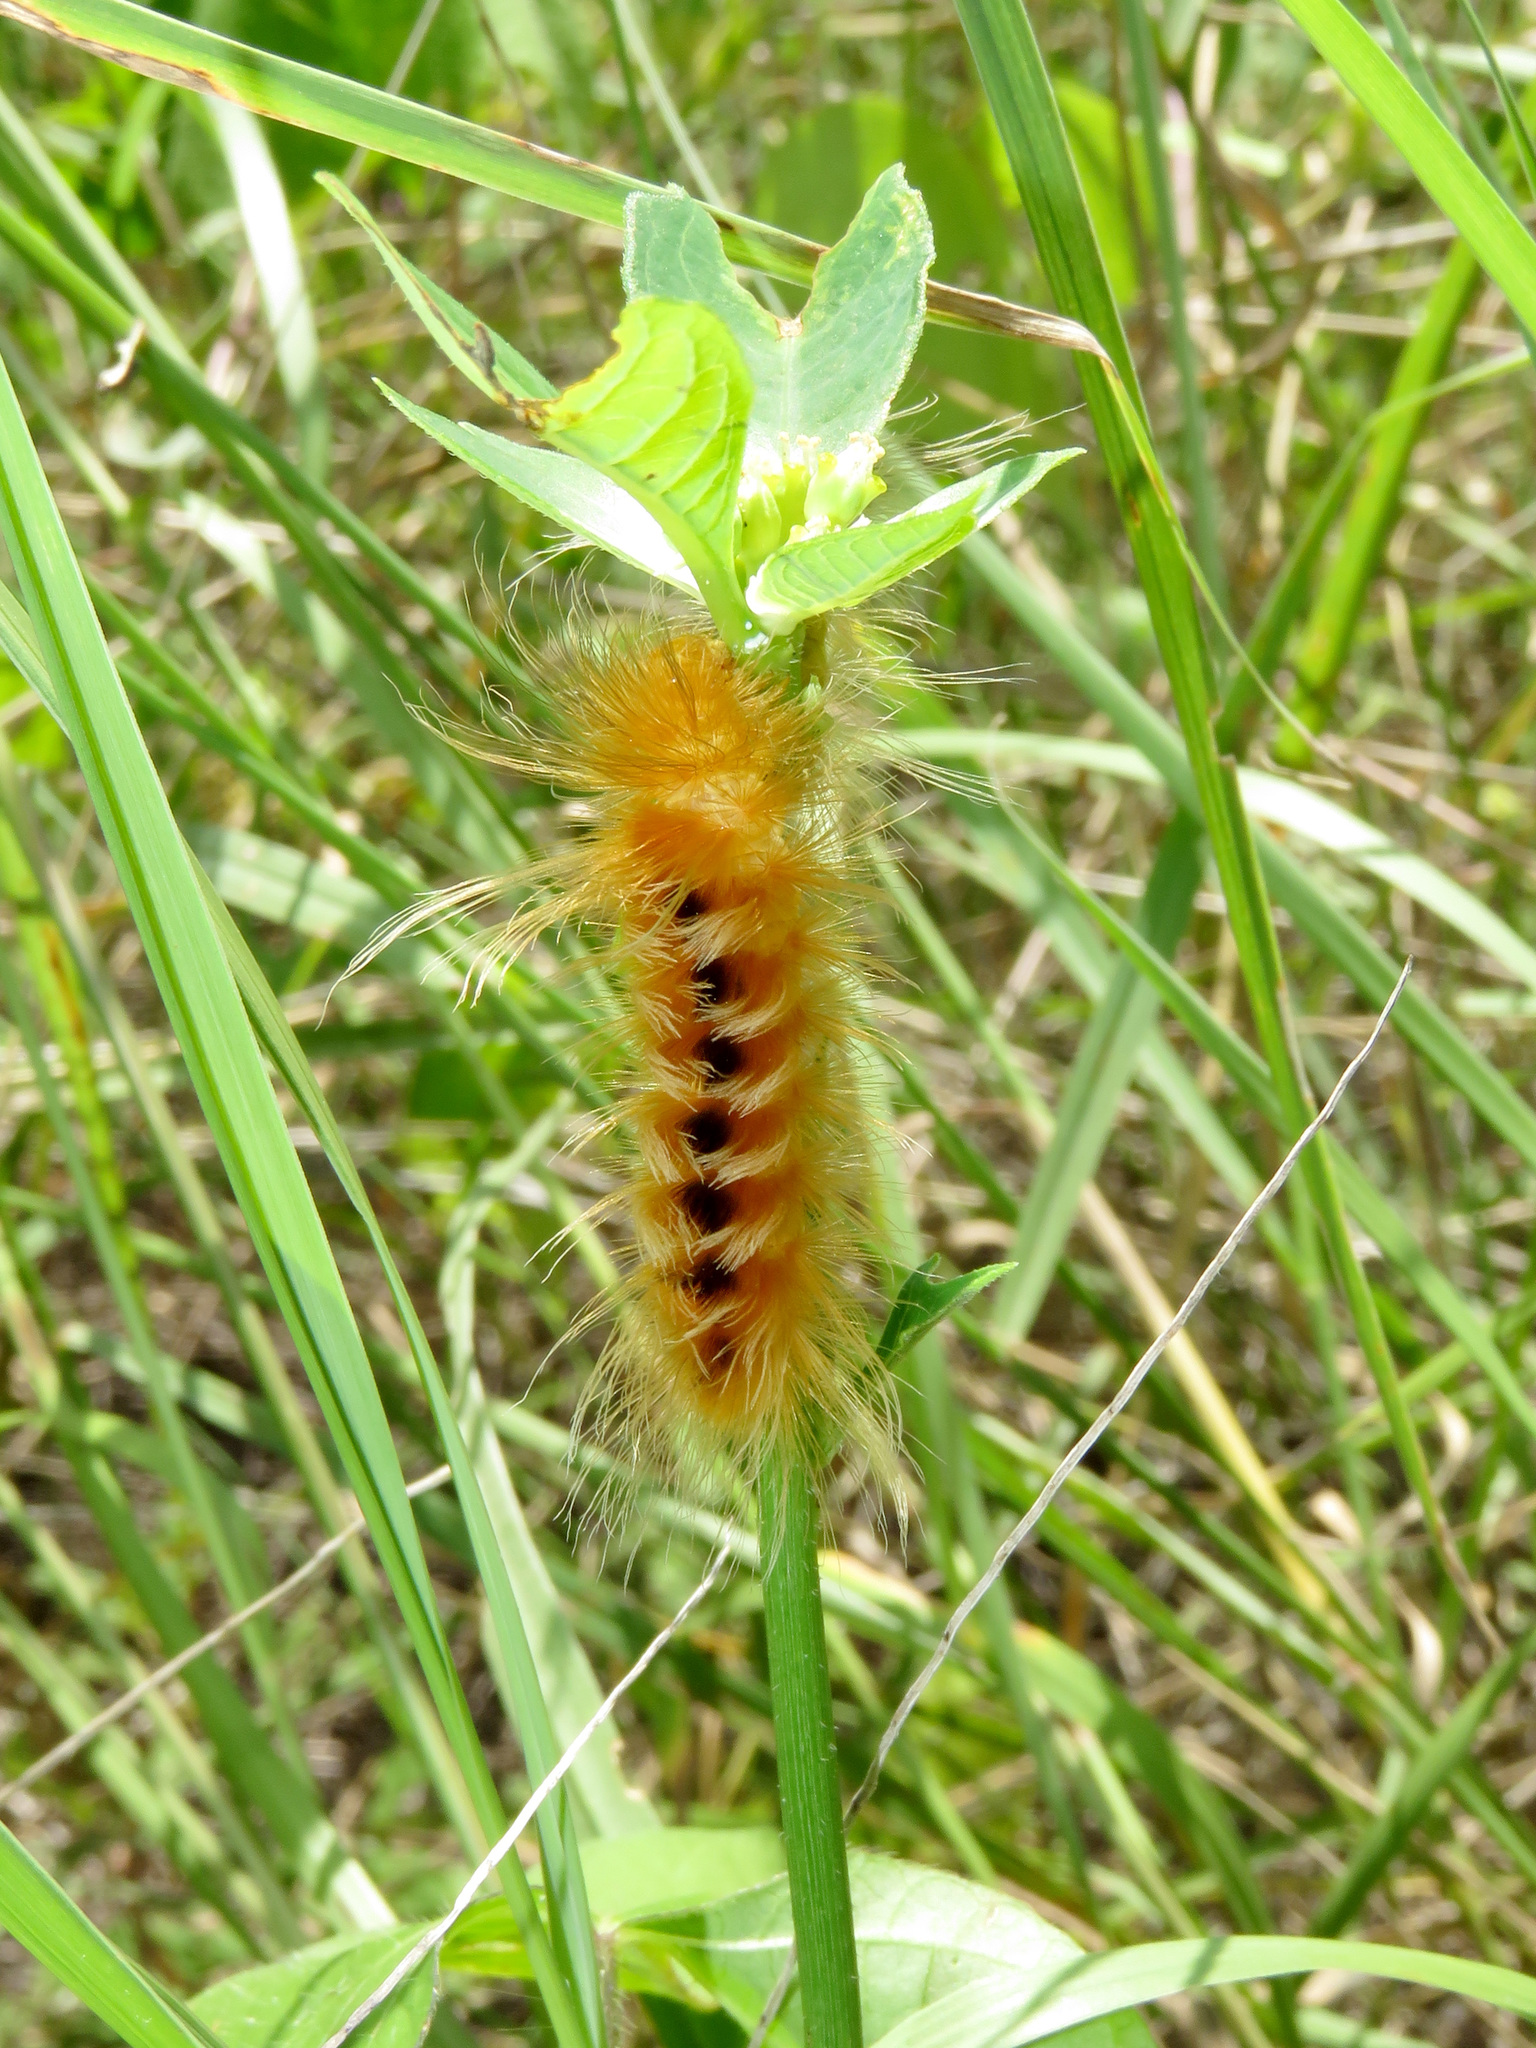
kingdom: Animalia
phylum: Arthropoda
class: Insecta
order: Lepidoptera
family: Erebidae
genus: Pygarctia
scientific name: Pygarctia roseicapitis
